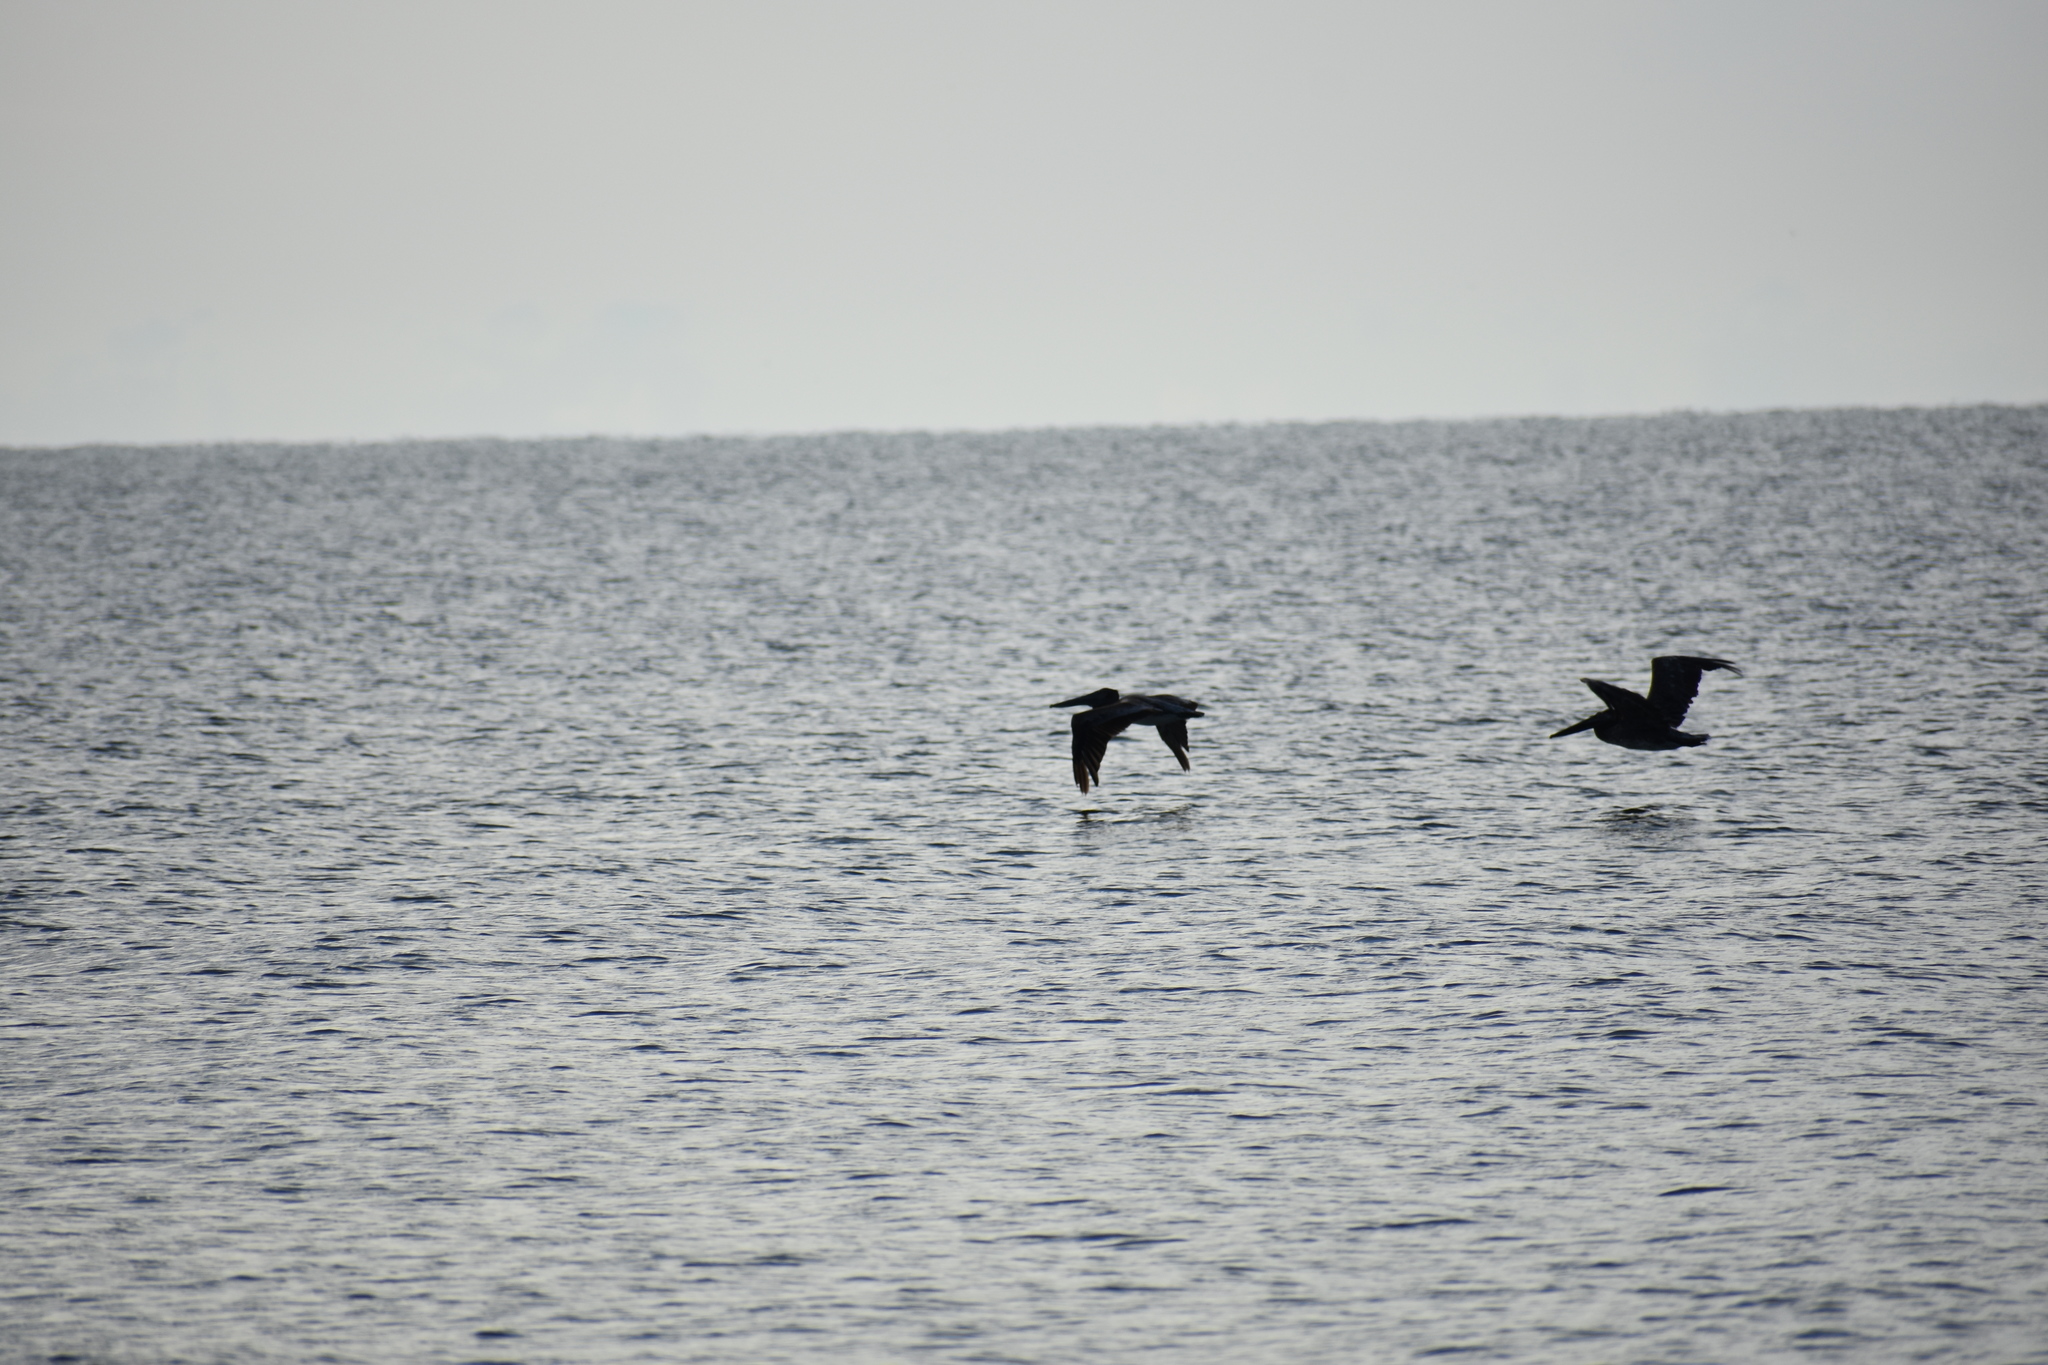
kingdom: Animalia
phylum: Chordata
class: Aves
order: Pelecaniformes
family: Pelecanidae
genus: Pelecanus
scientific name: Pelecanus occidentalis
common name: Brown pelican
